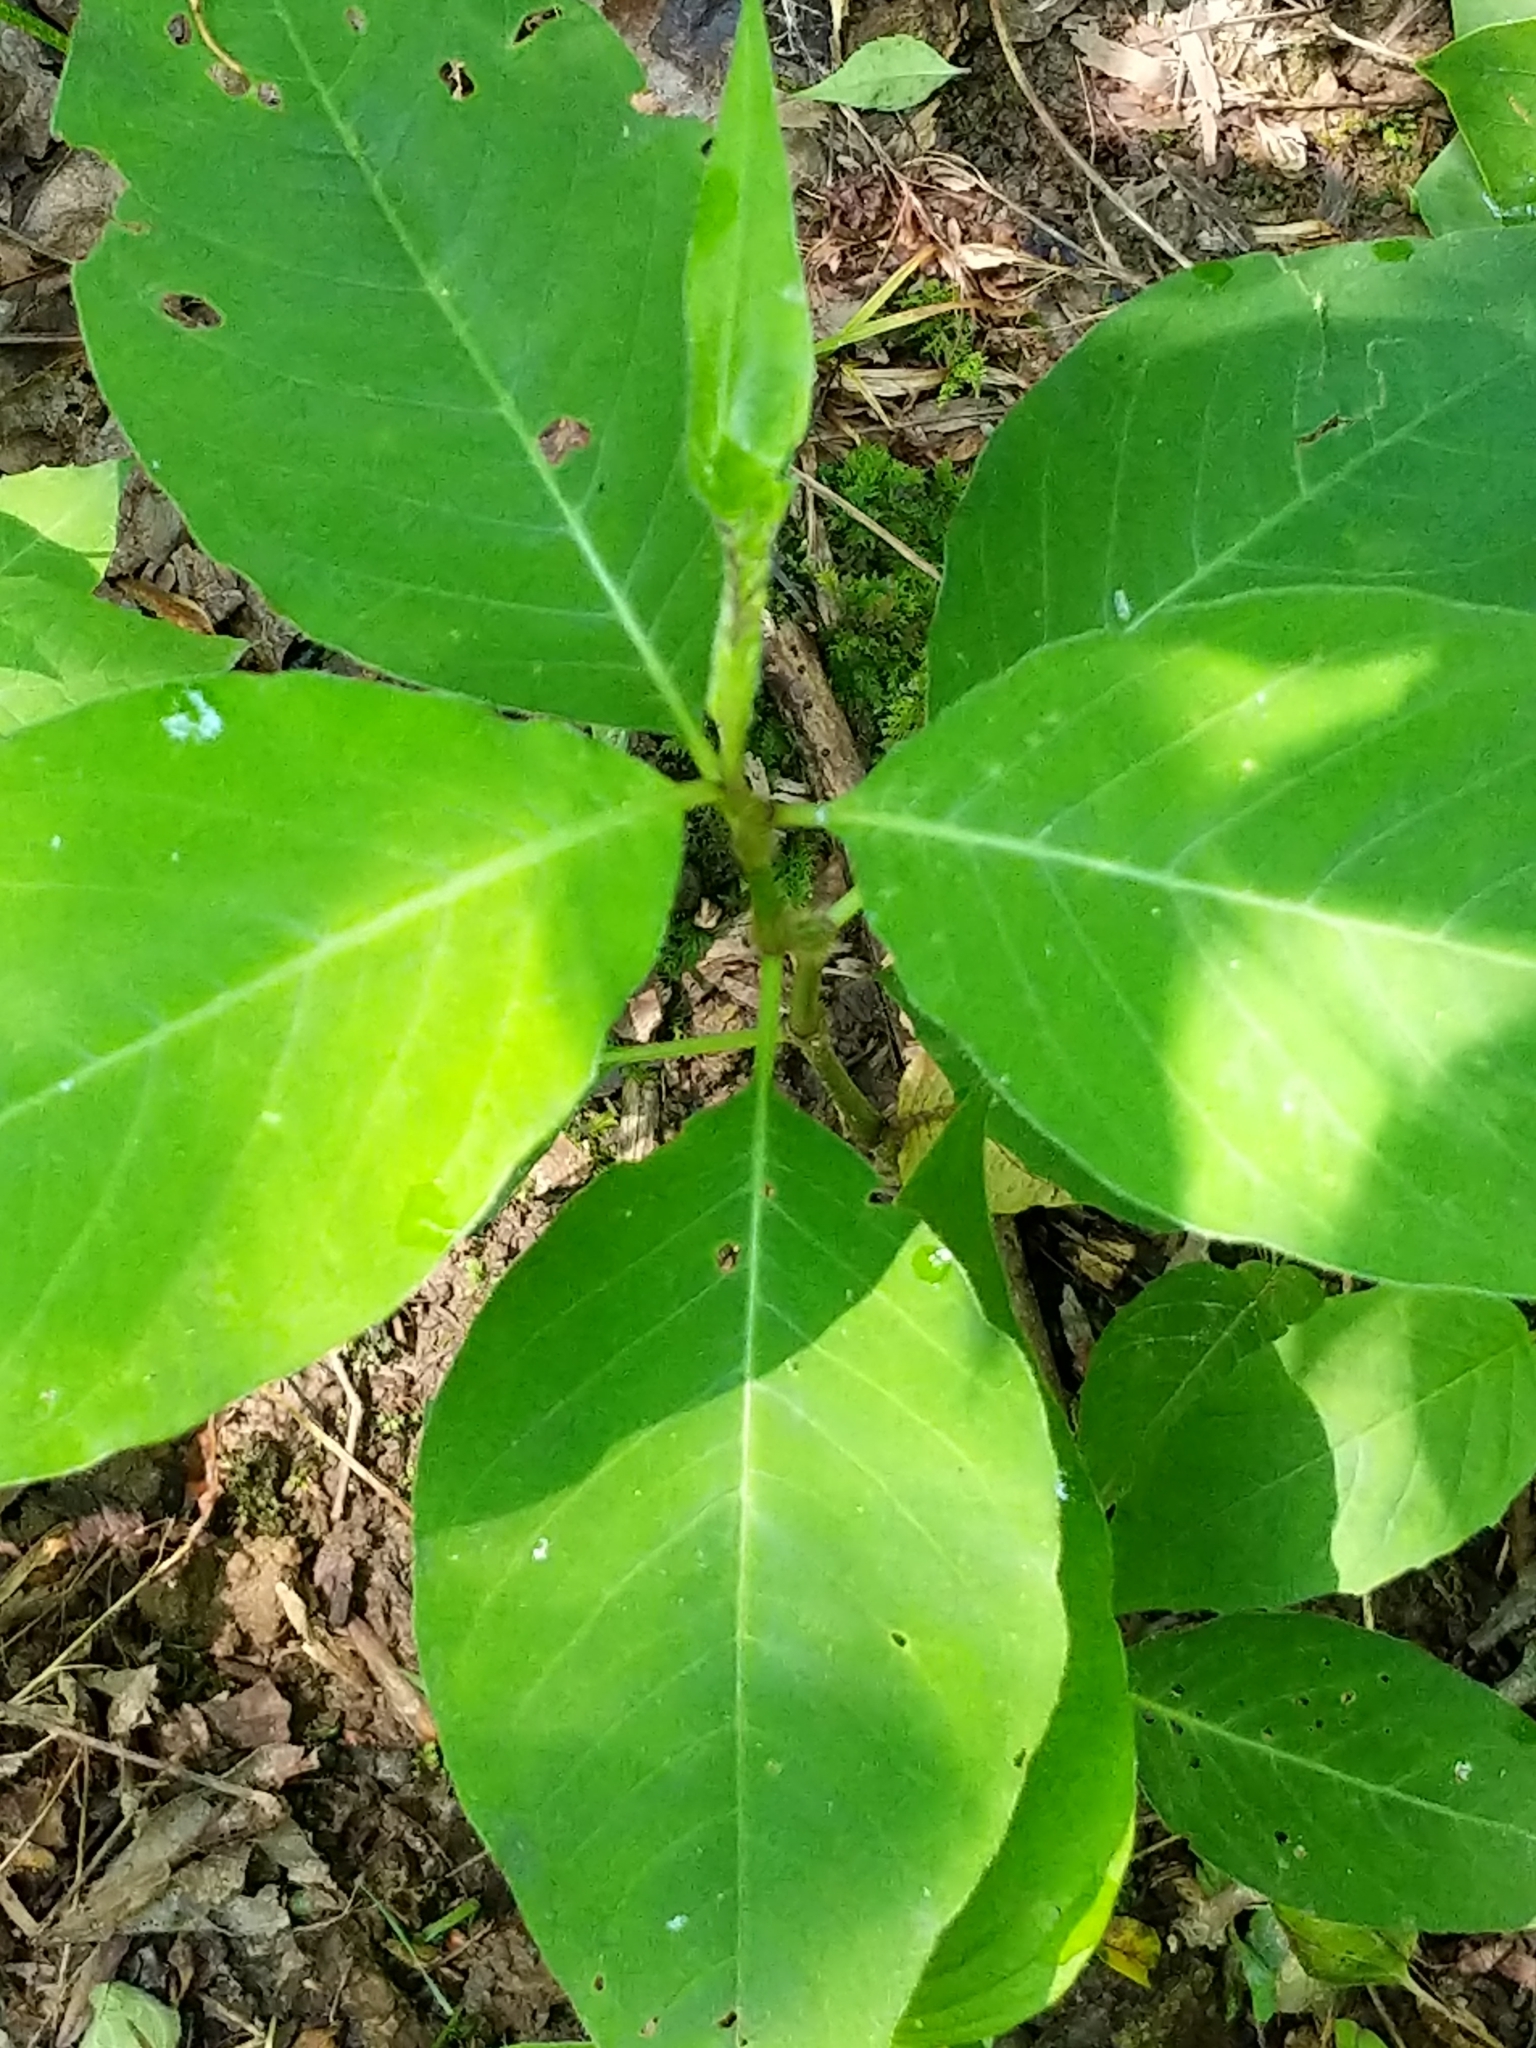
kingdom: Plantae
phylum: Tracheophyta
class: Magnoliopsida
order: Caryophyllales
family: Polygonaceae
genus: Persicaria
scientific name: Persicaria virginiana
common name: Jumpseed
